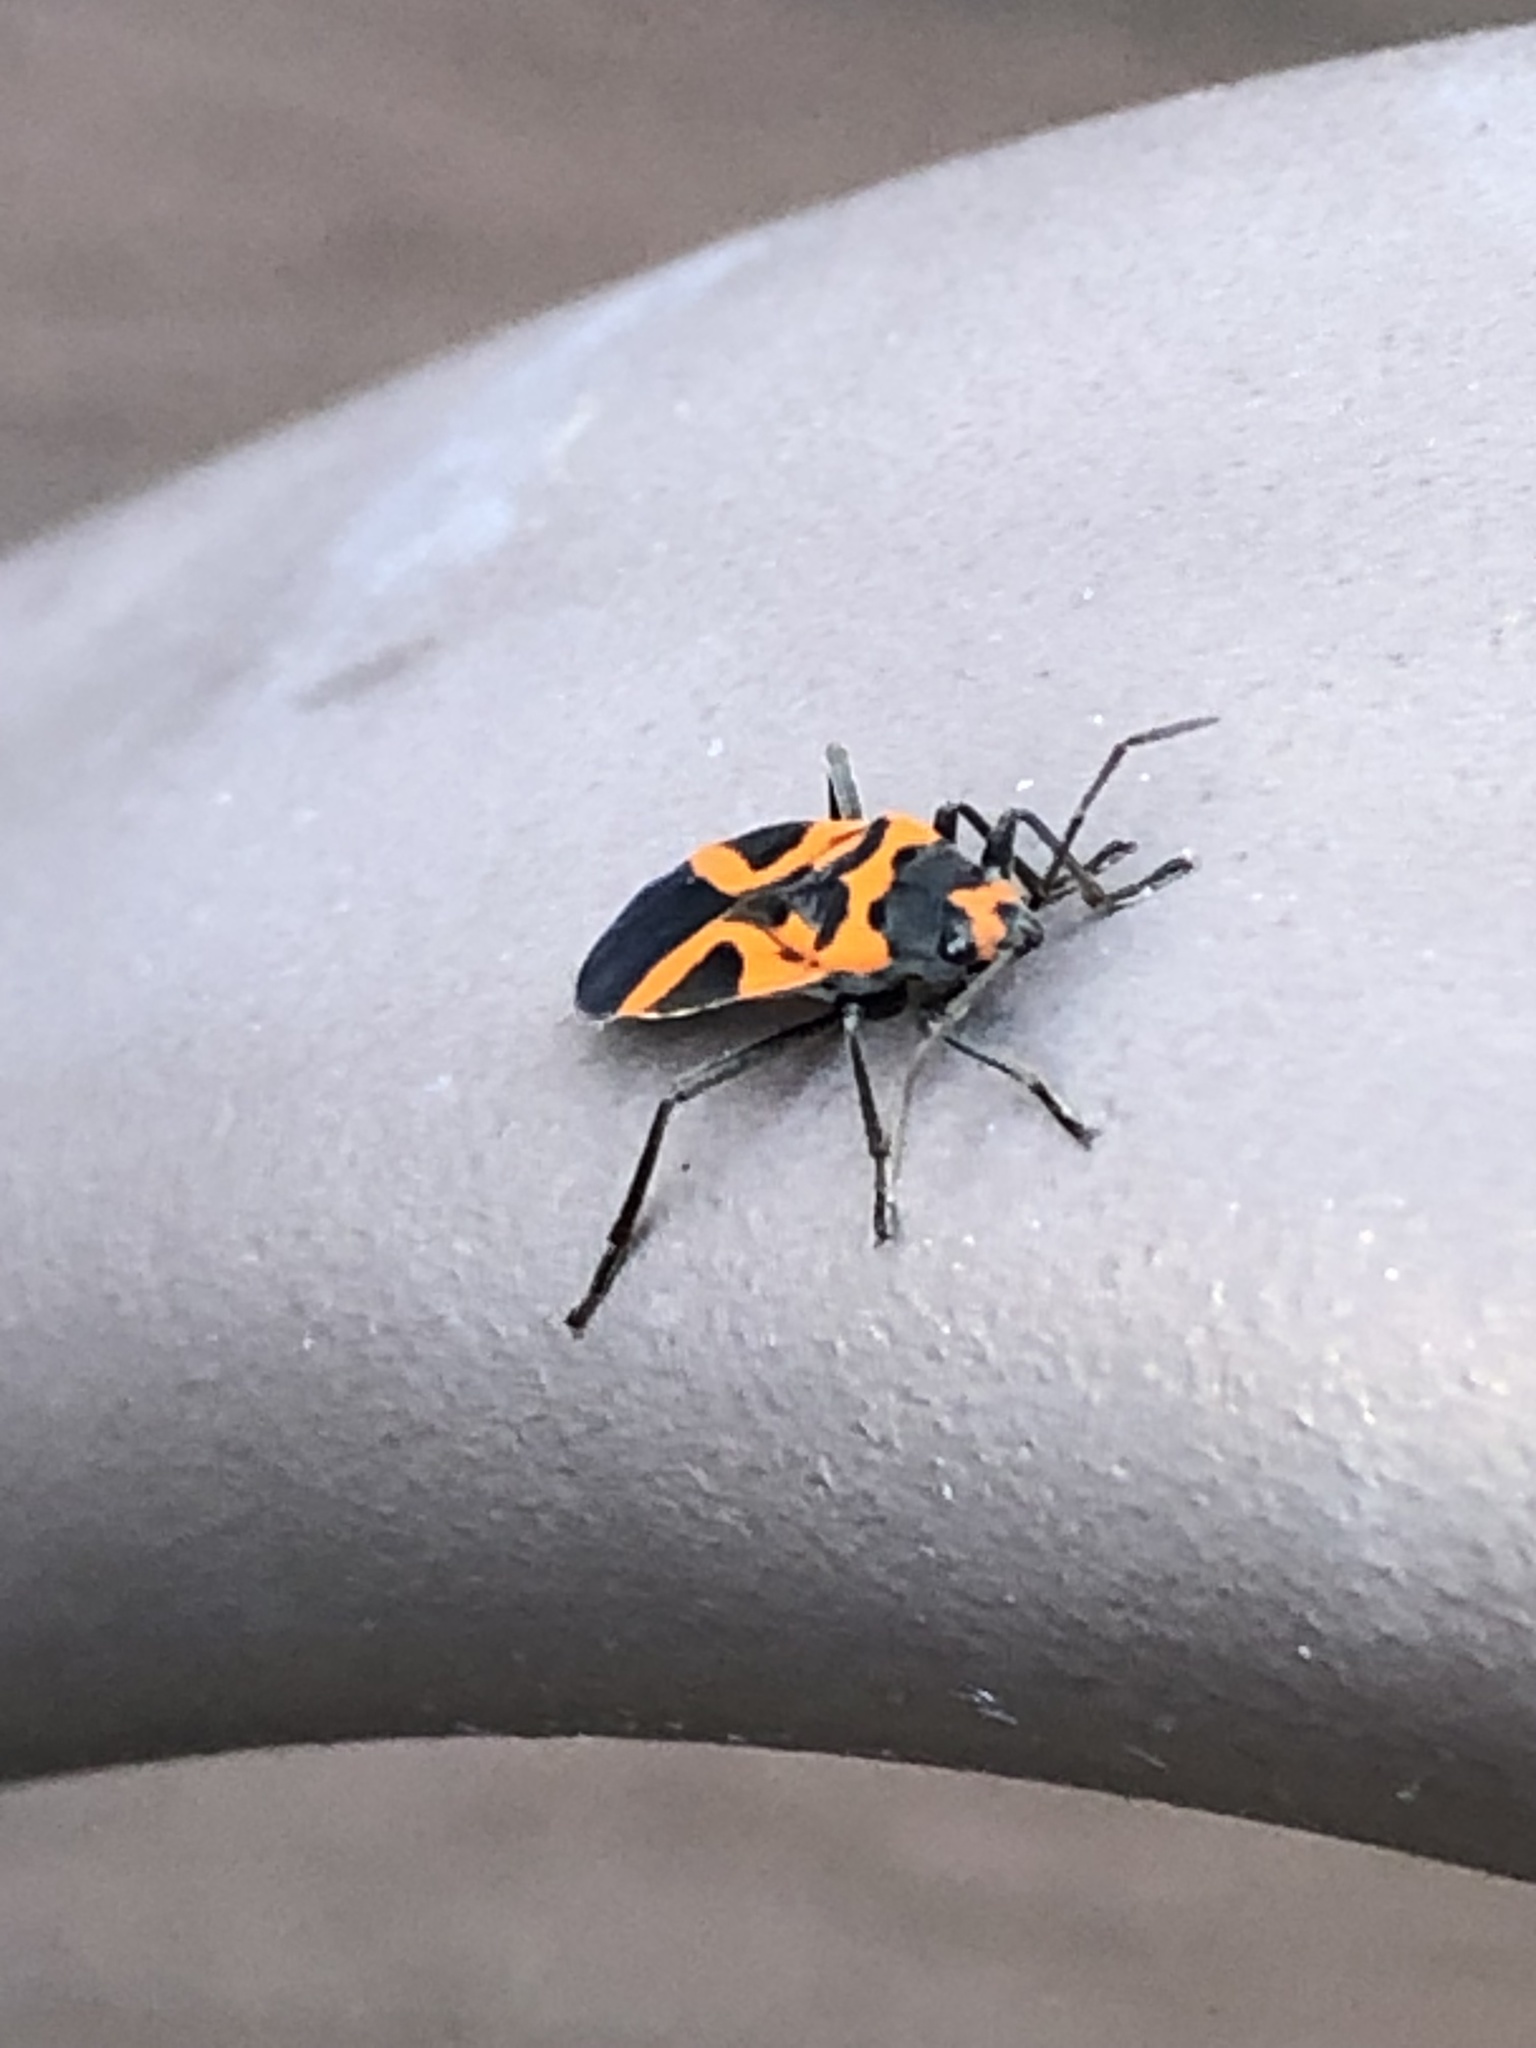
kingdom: Animalia
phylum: Arthropoda
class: Insecta
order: Hemiptera
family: Lygaeidae
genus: Lygaeus
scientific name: Lygaeus turcicus
